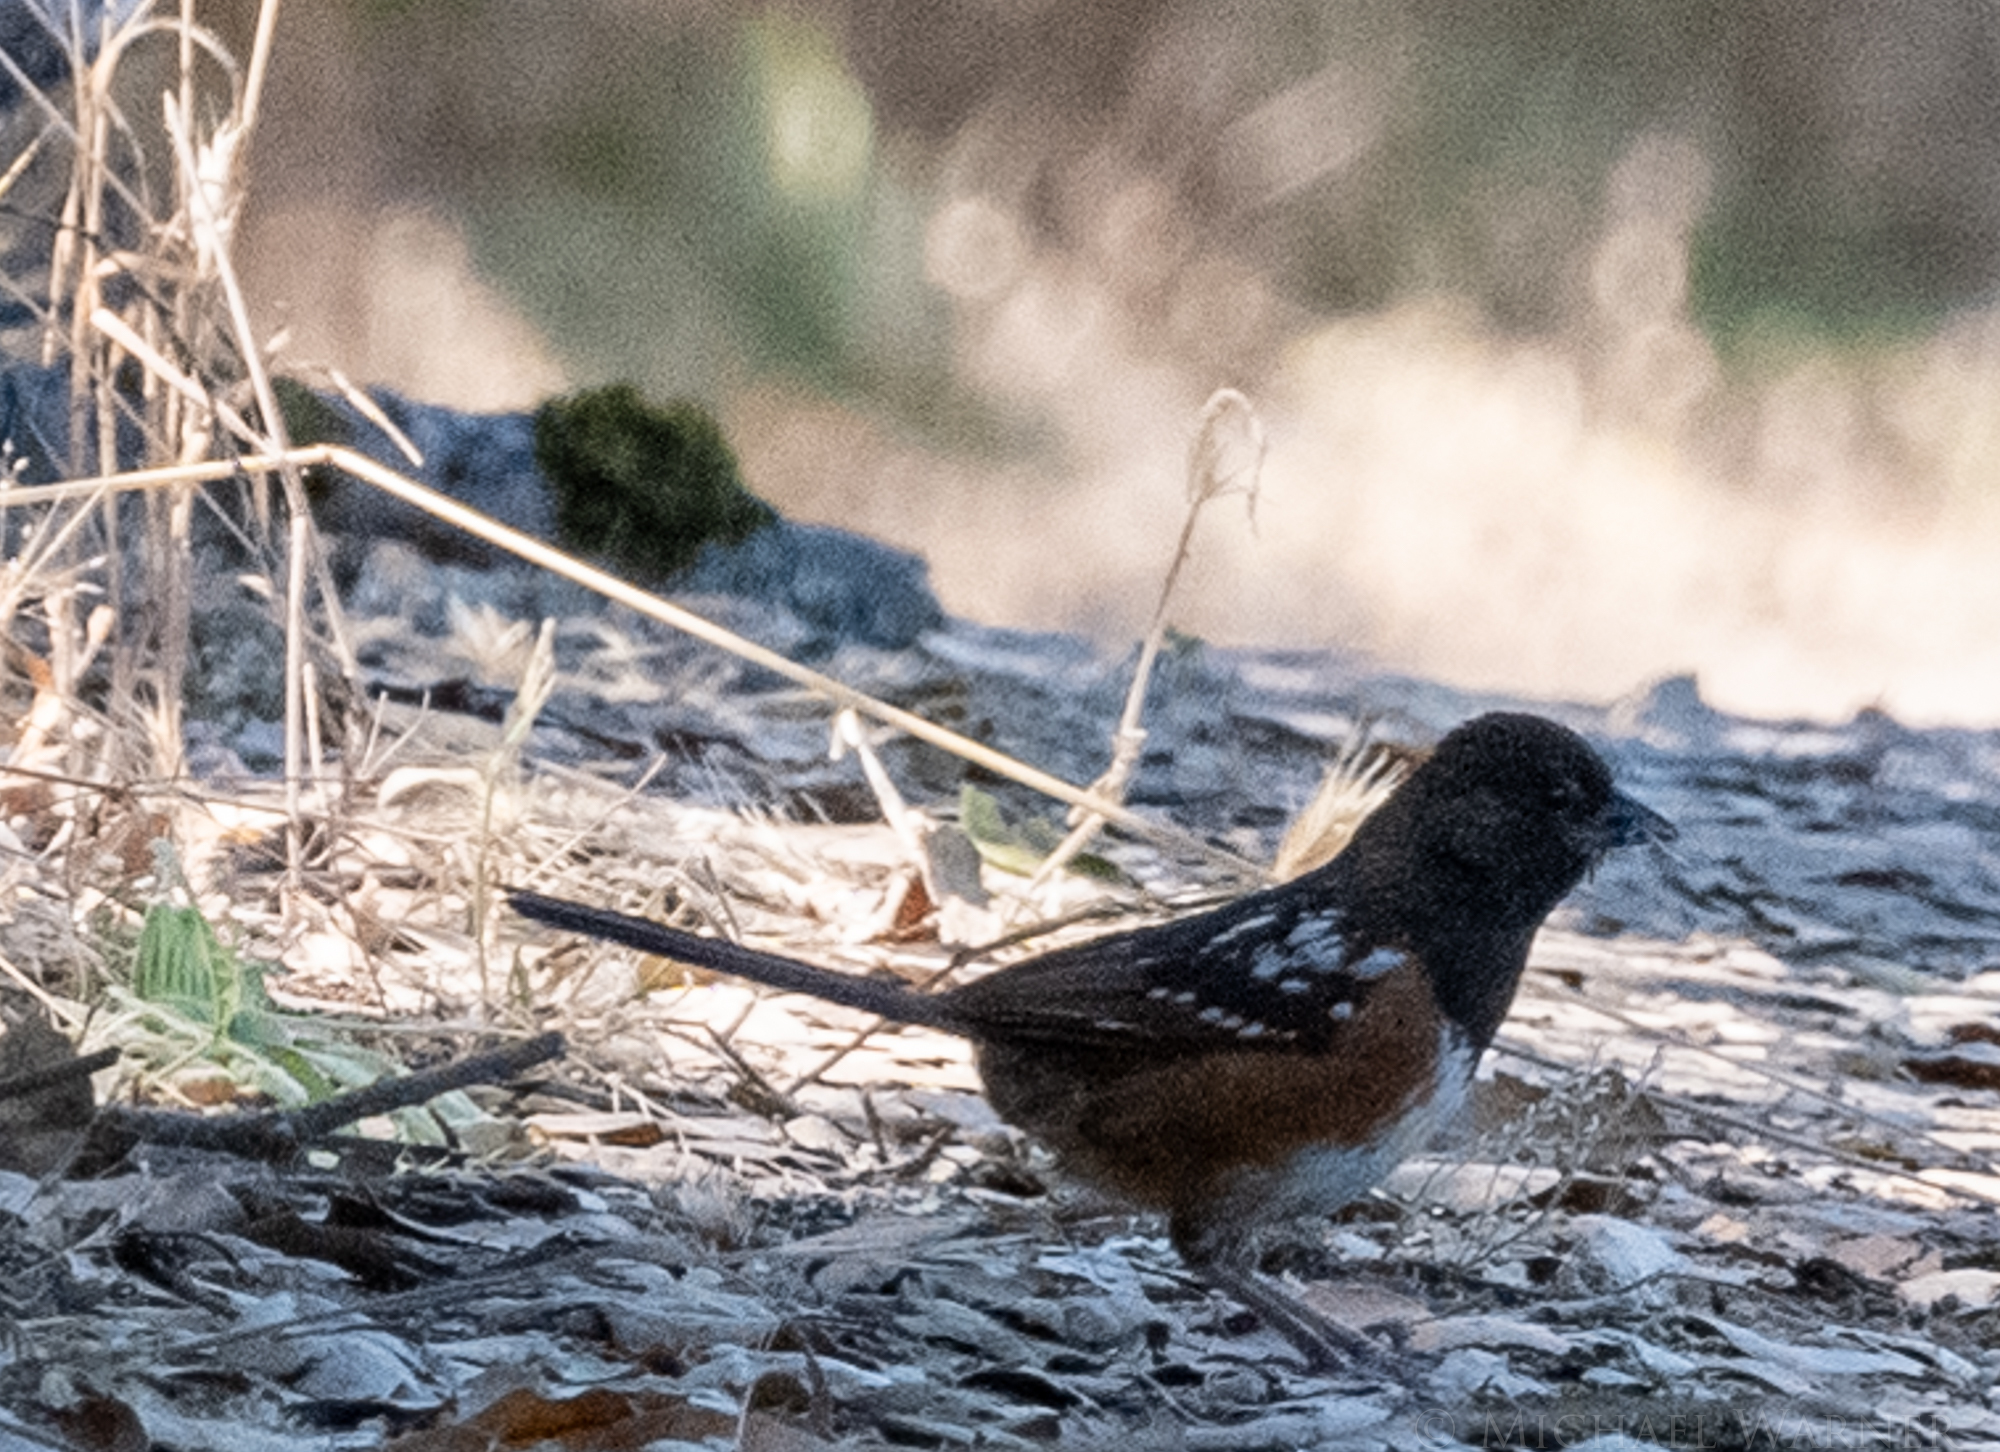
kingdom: Animalia
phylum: Chordata
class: Aves
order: Passeriformes
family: Passerellidae
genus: Pipilo
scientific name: Pipilo maculatus
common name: Spotted towhee
